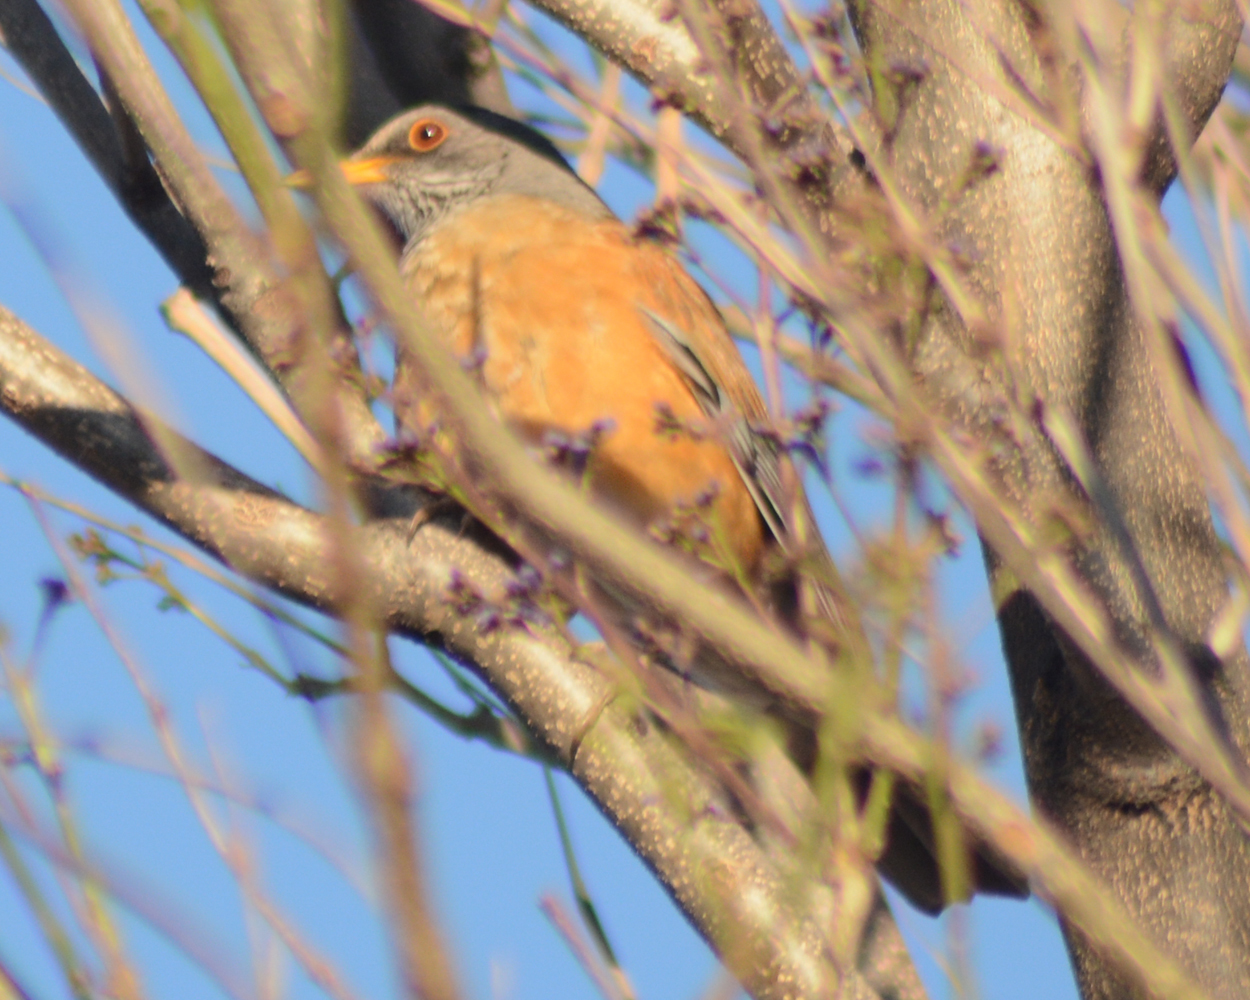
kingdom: Animalia
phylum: Chordata
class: Aves
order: Passeriformes
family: Turdidae
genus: Turdus
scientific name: Turdus rufopalliatus
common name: Rufous-backed robin
